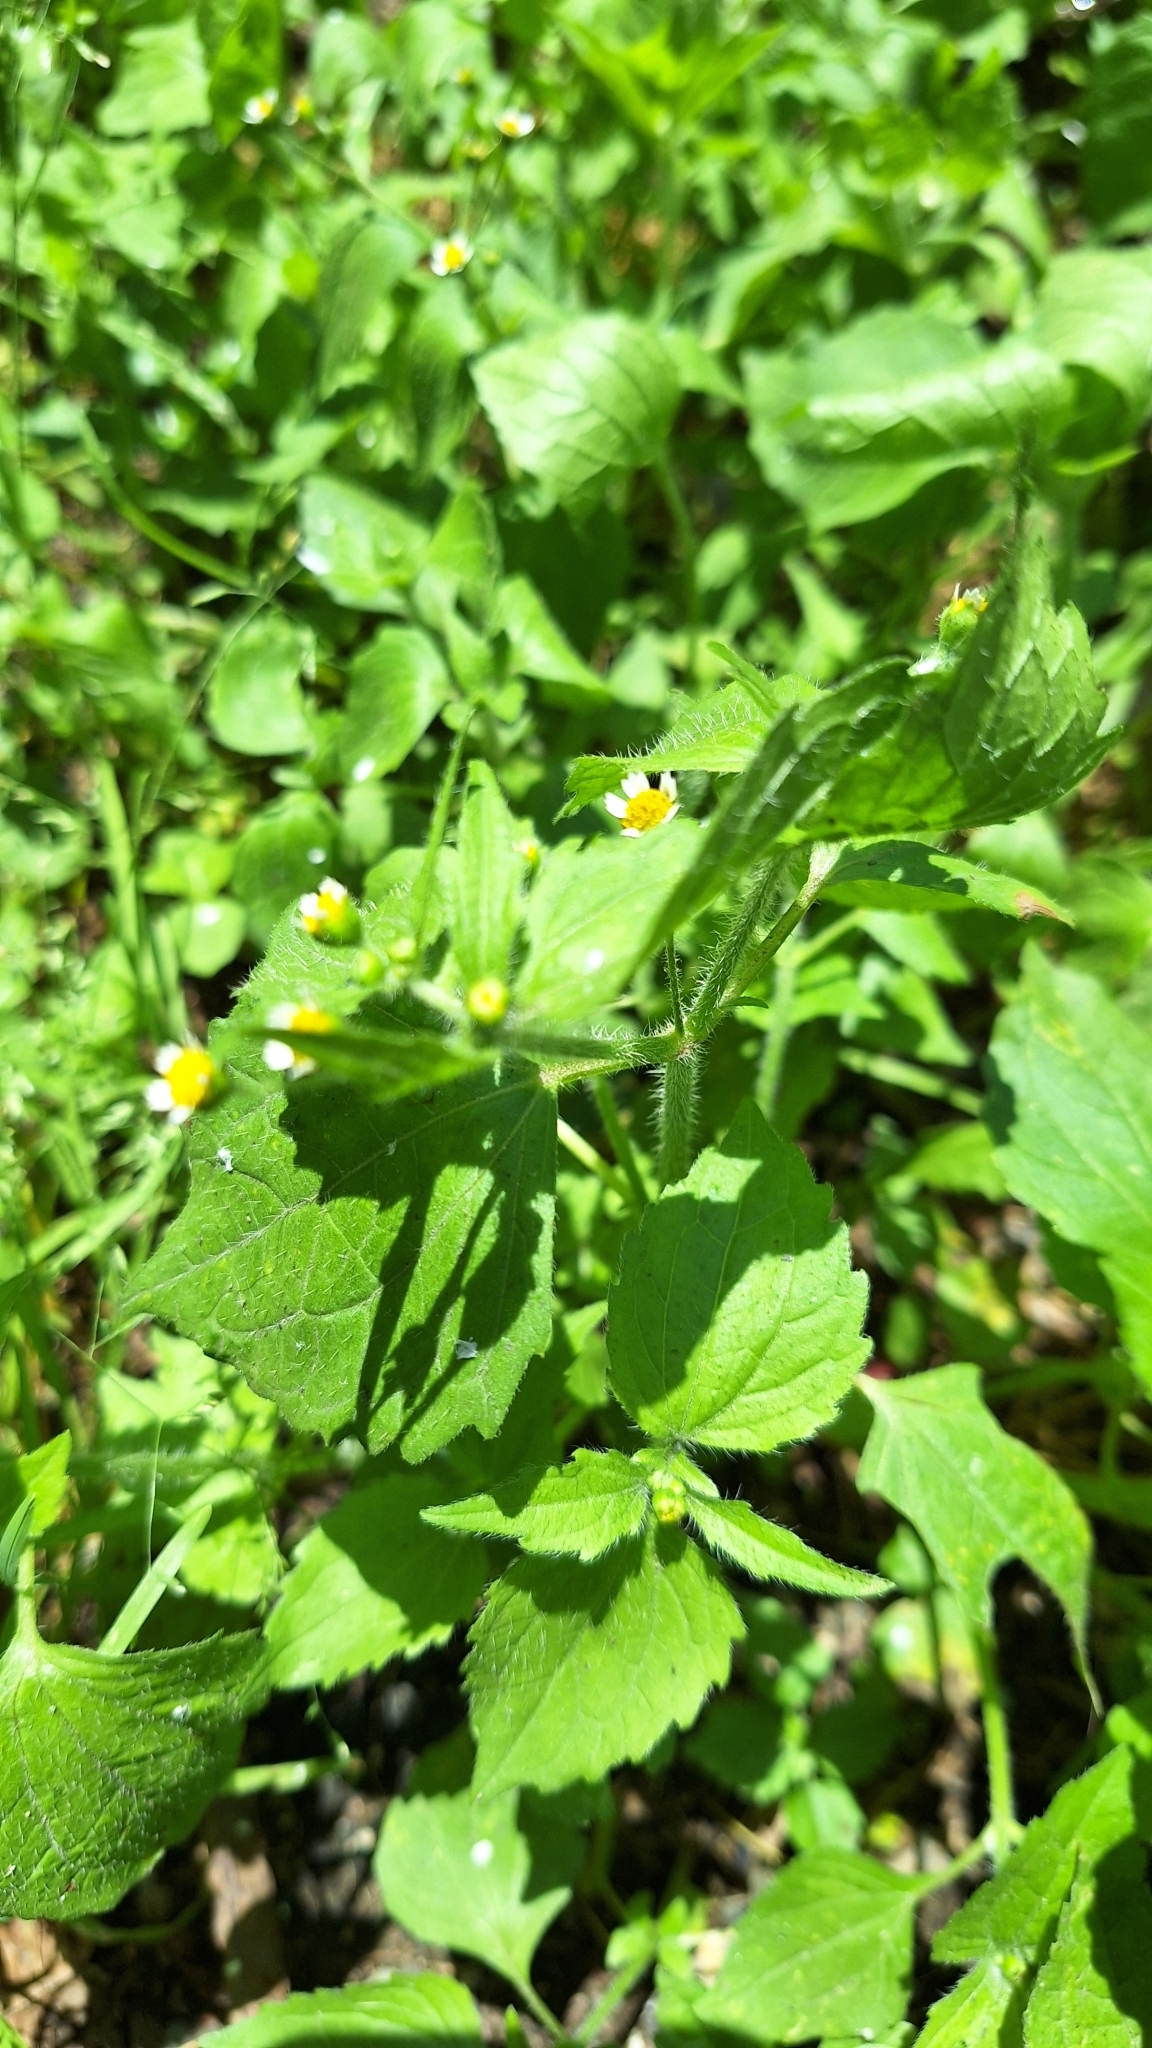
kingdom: Plantae
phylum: Tracheophyta
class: Magnoliopsida
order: Asterales
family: Asteraceae
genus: Galinsoga
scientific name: Galinsoga quadriradiata
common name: Shaggy soldier
